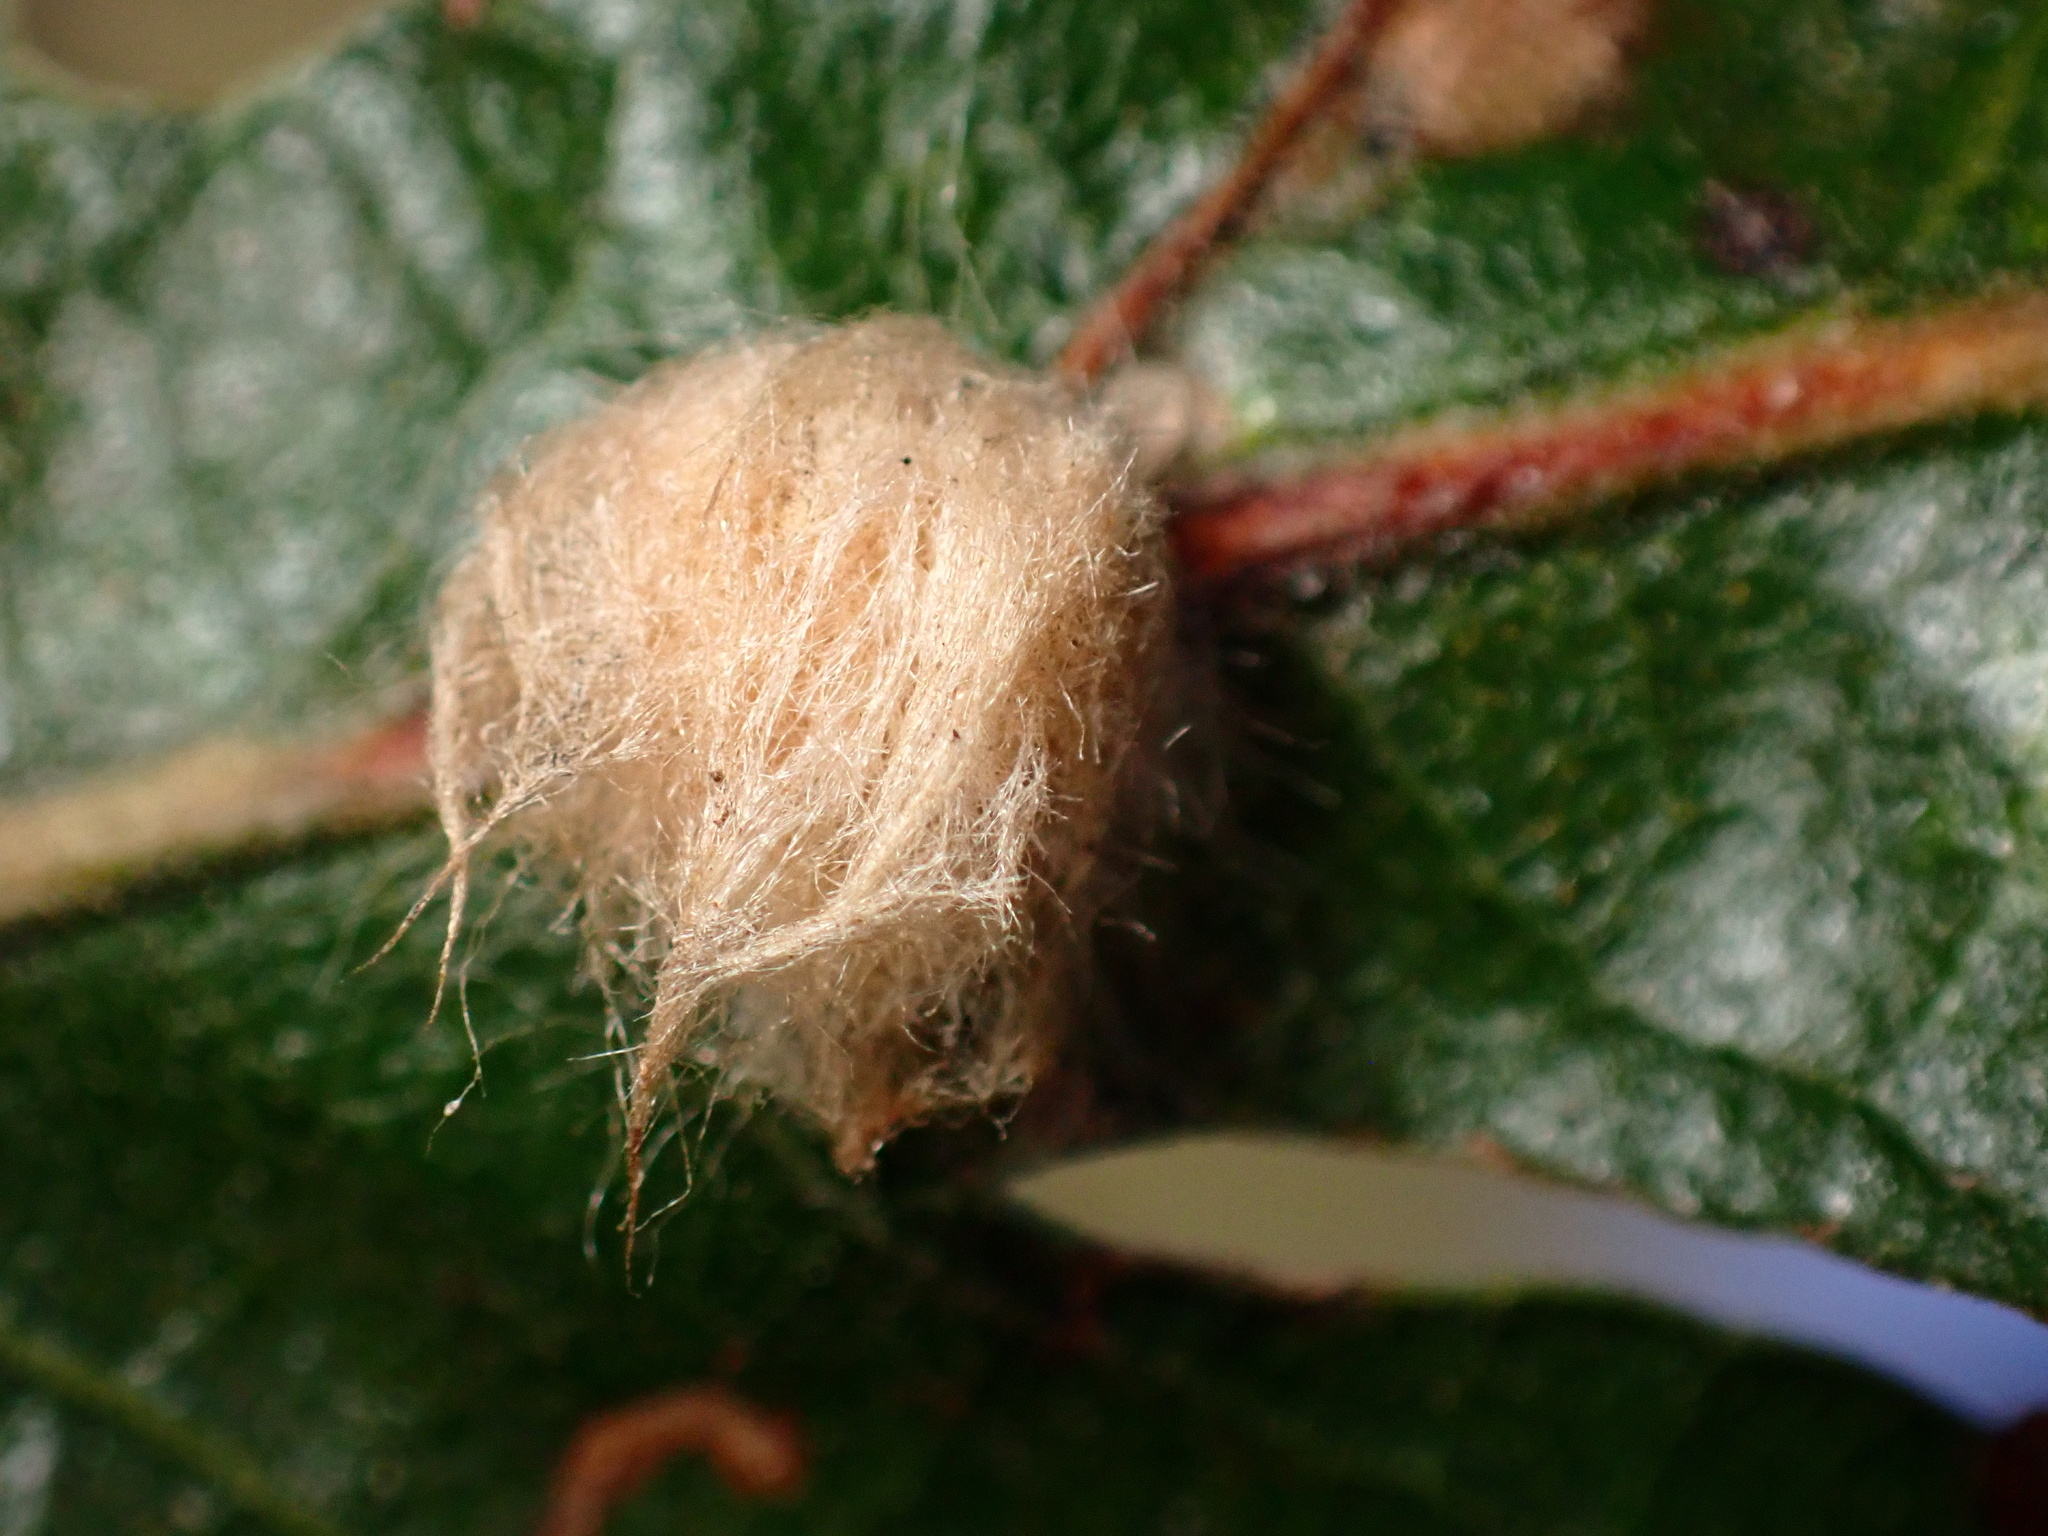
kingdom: Animalia
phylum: Arthropoda
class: Insecta
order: Hymenoptera
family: Cynipidae
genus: Andricus
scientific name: Andricus Druon fullawayi
